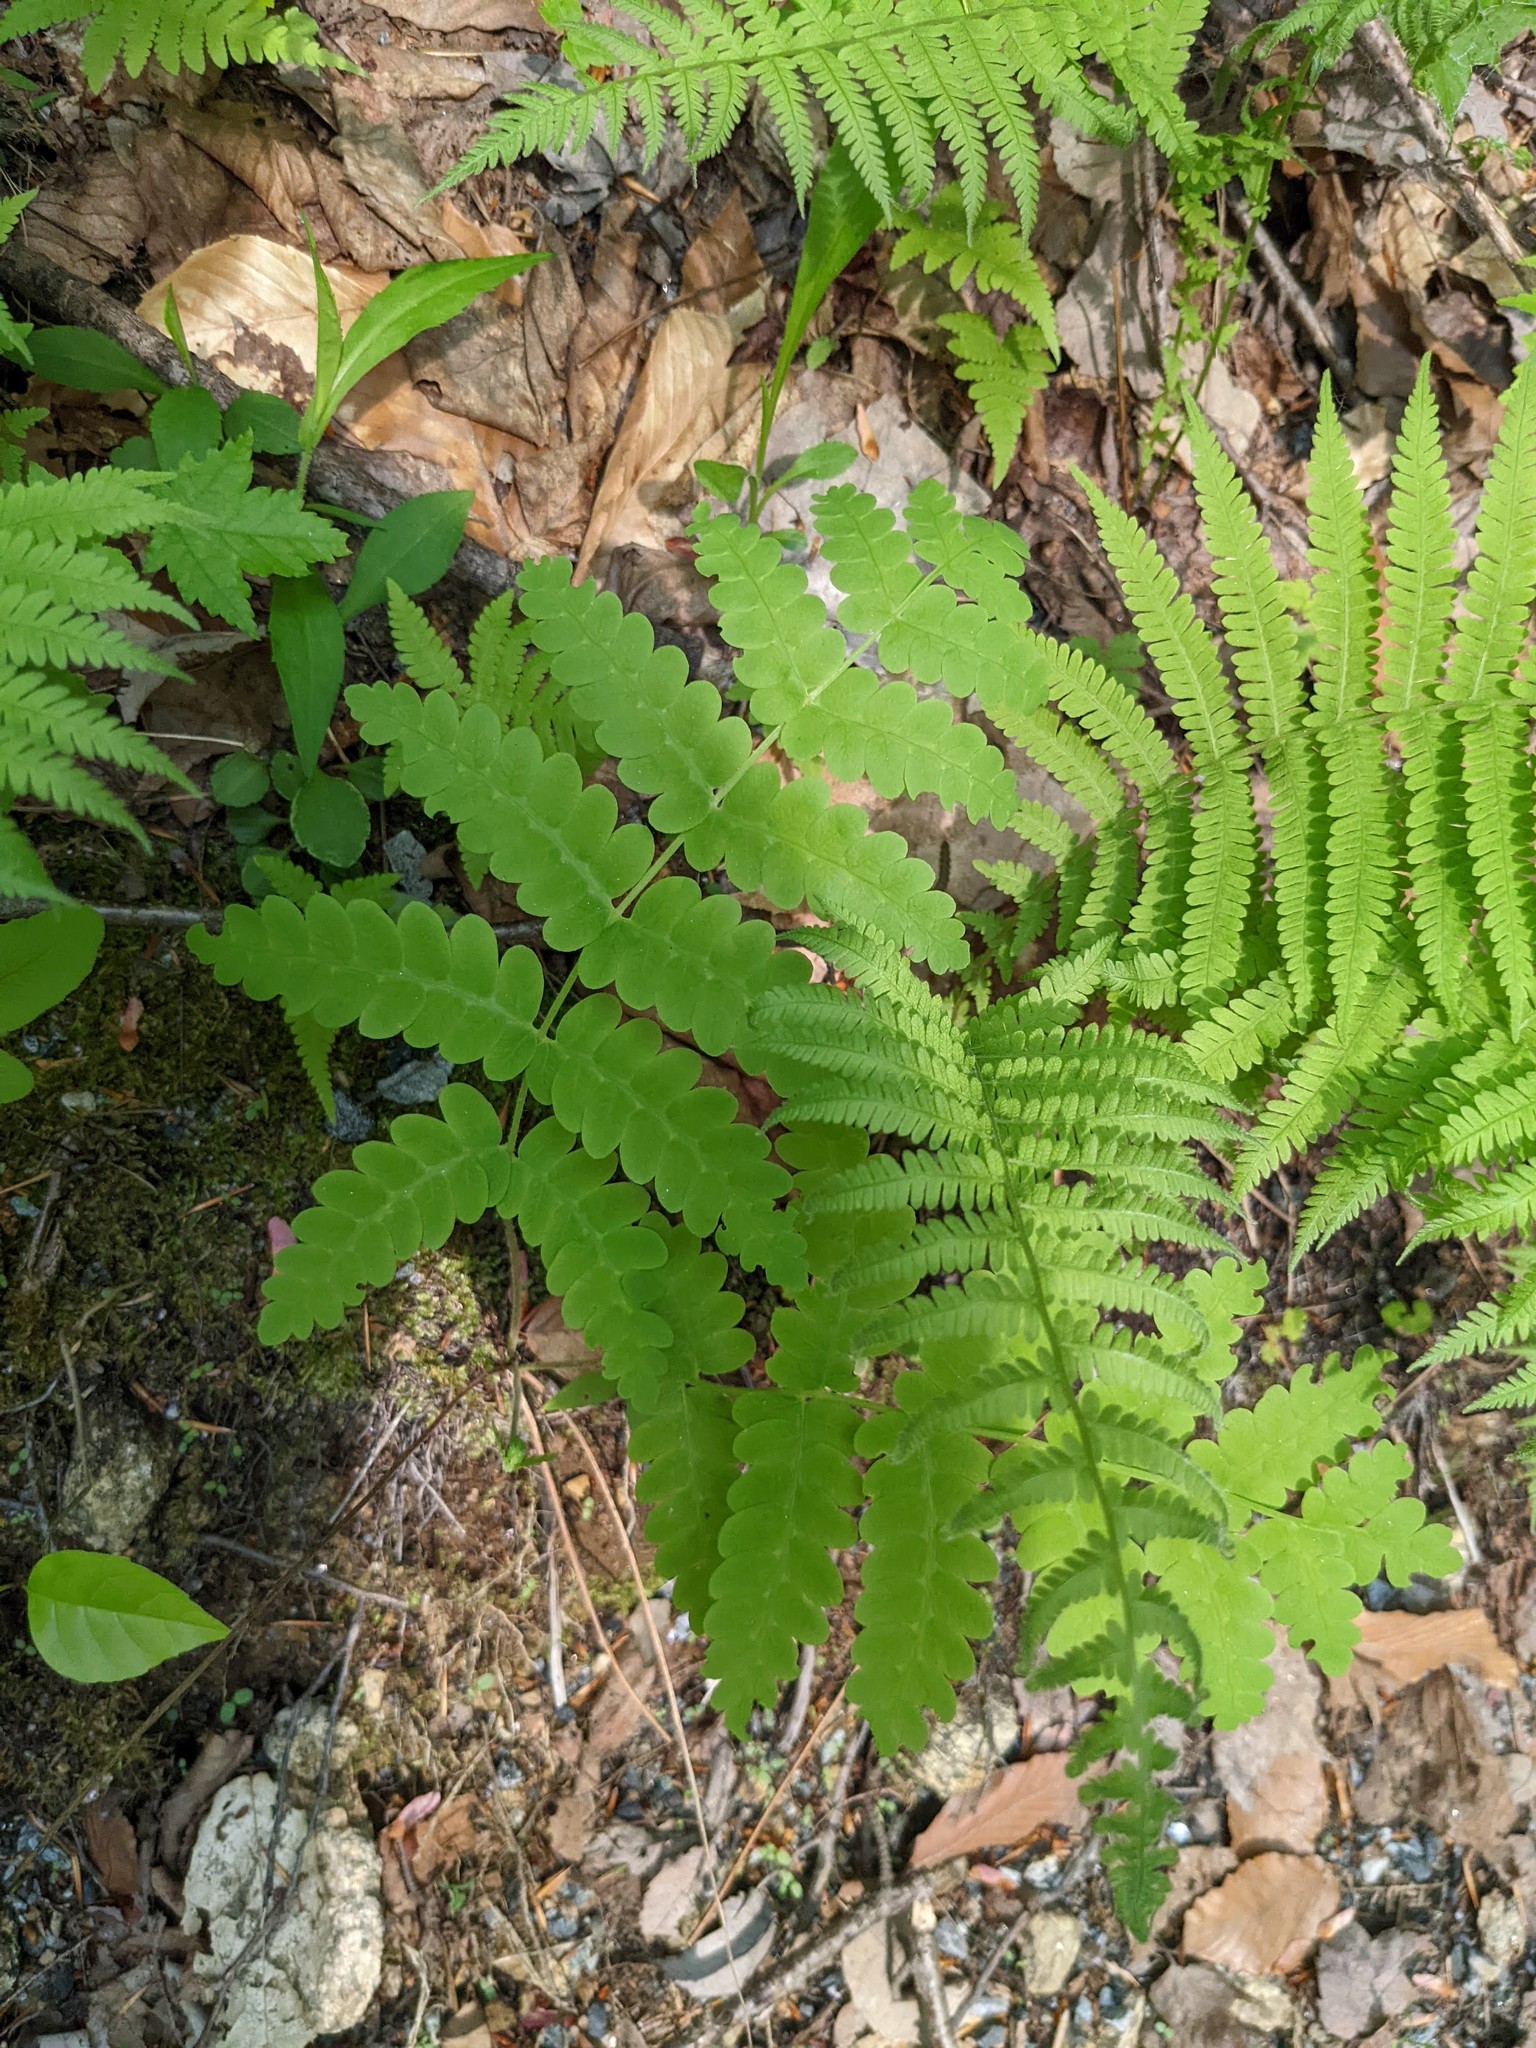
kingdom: Plantae
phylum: Tracheophyta
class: Polypodiopsida
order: Osmundales
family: Osmundaceae
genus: Claytosmunda
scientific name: Claytosmunda claytoniana
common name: Clayton's fern
